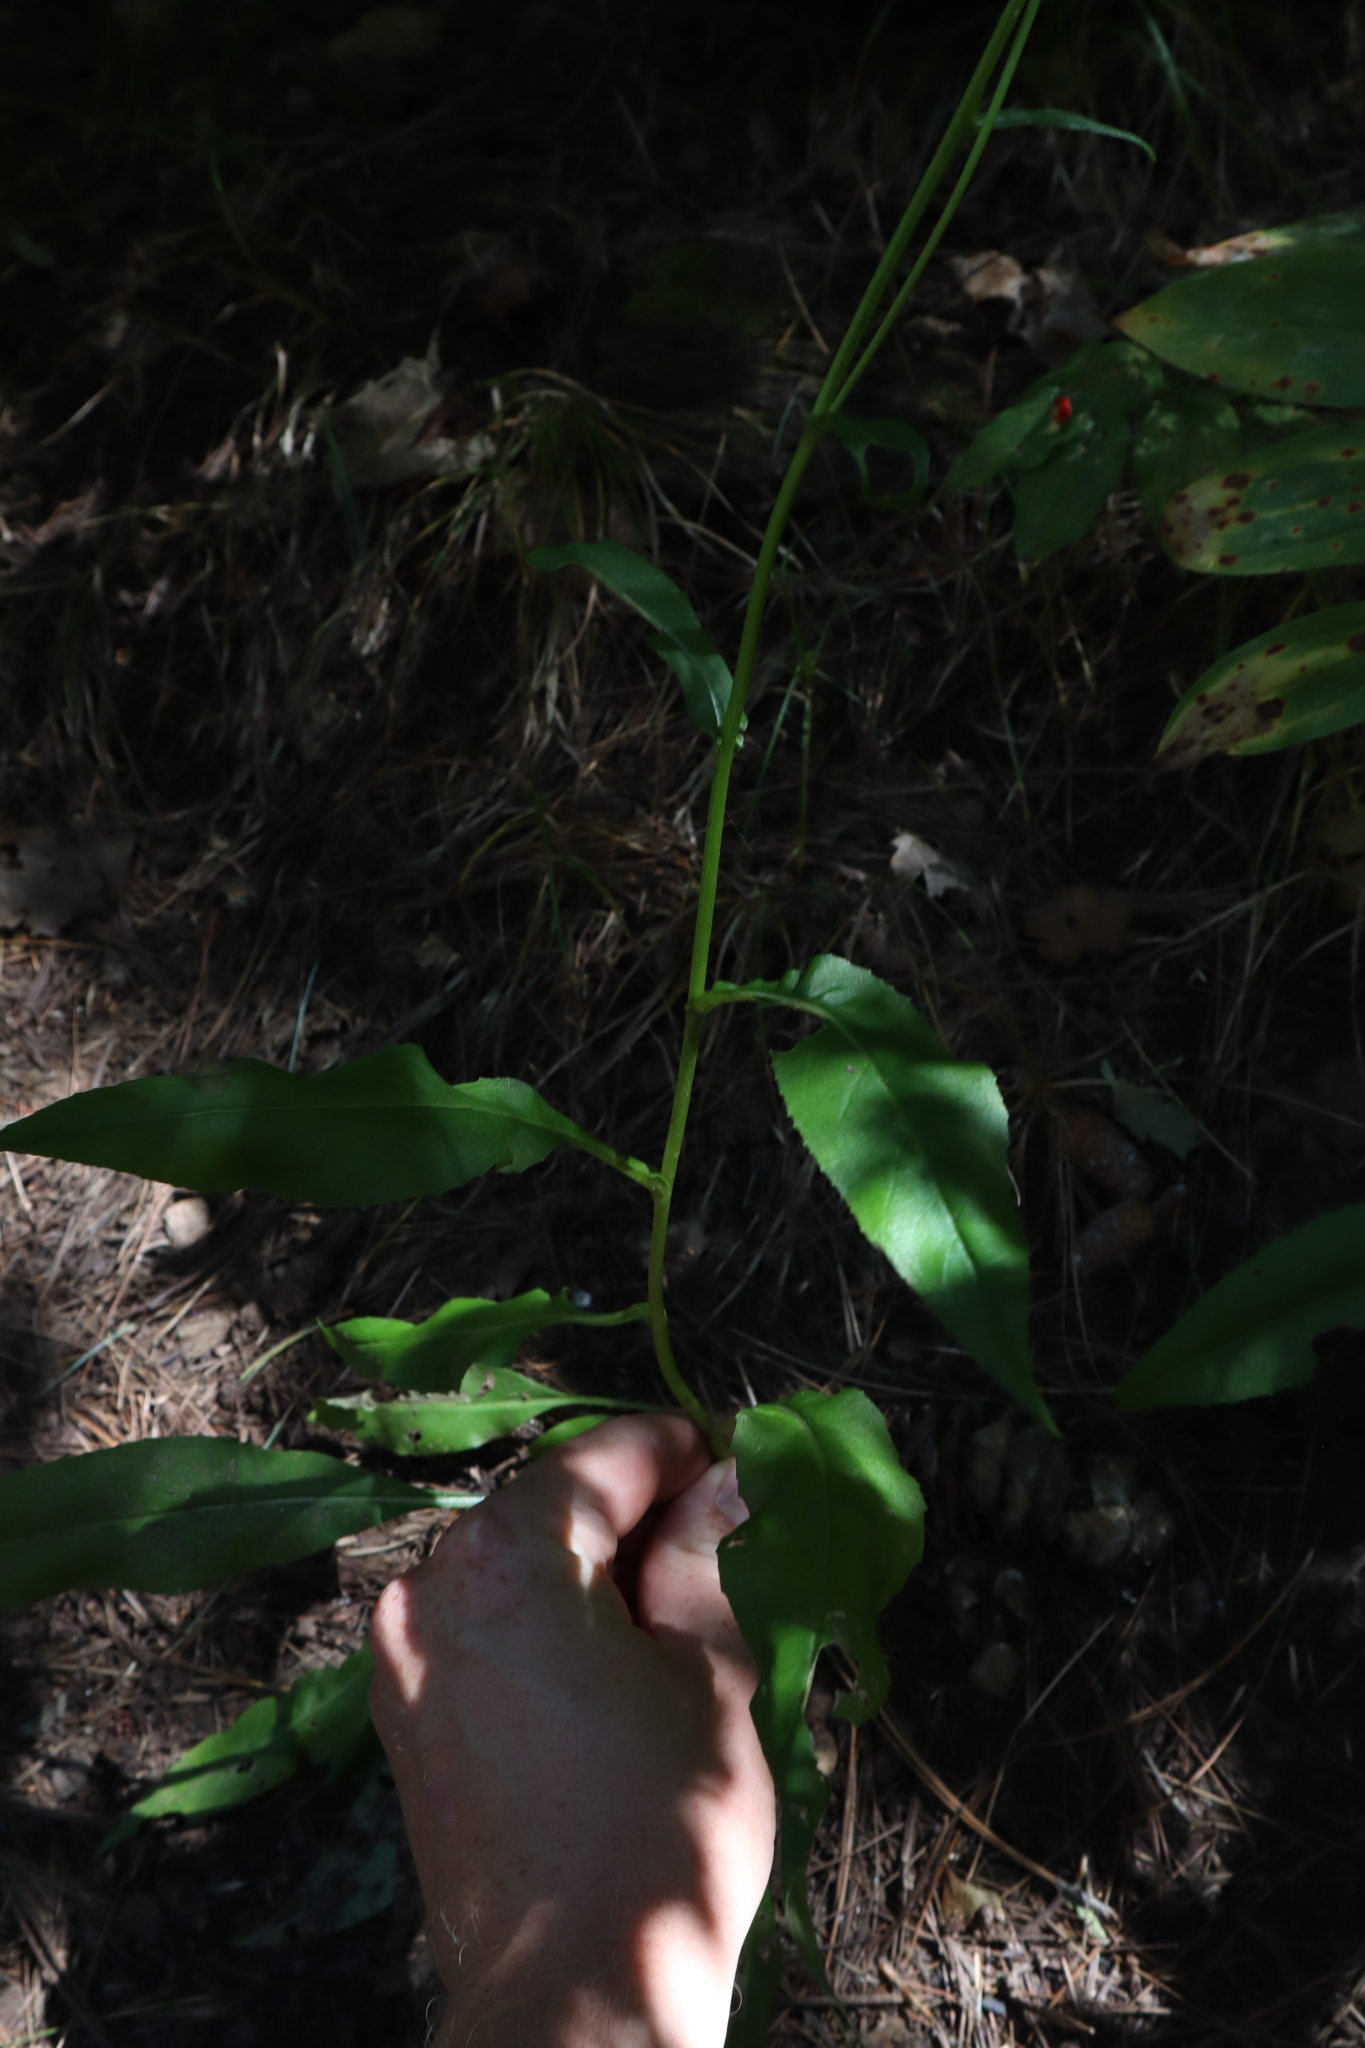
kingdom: Plantae
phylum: Tracheophyta
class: Magnoliopsida
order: Asterales
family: Asteraceae
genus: Senecio
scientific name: Senecio bigelovii
